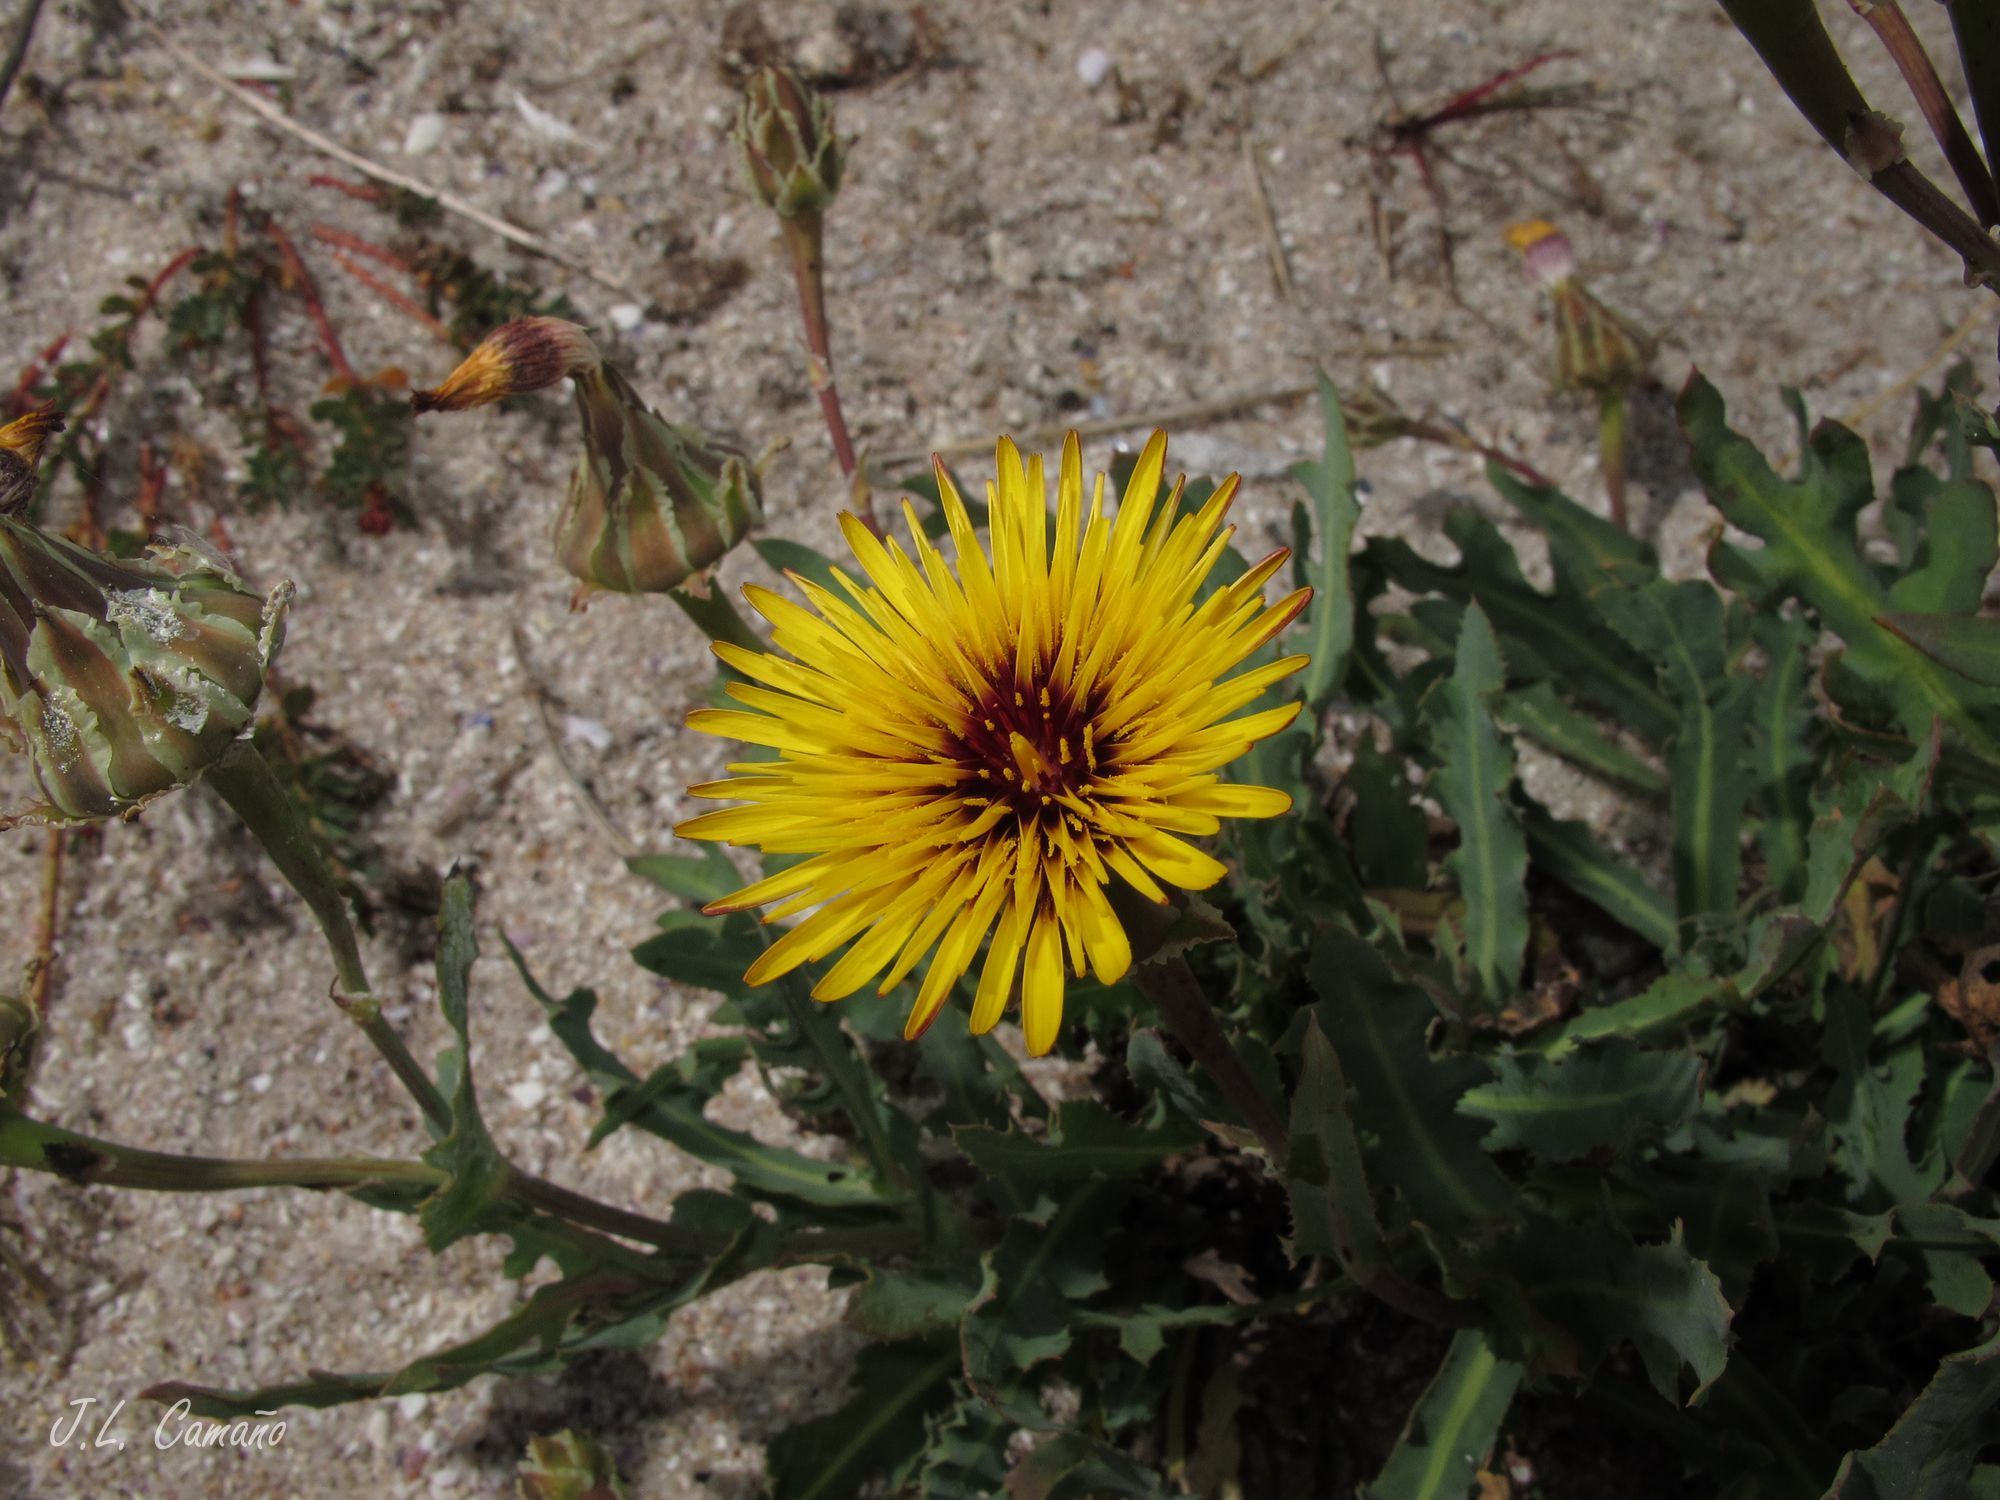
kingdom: Plantae
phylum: Tracheophyta
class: Magnoliopsida
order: Asterales
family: Asteraceae
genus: Reichardia
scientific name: Reichardia gaditana
